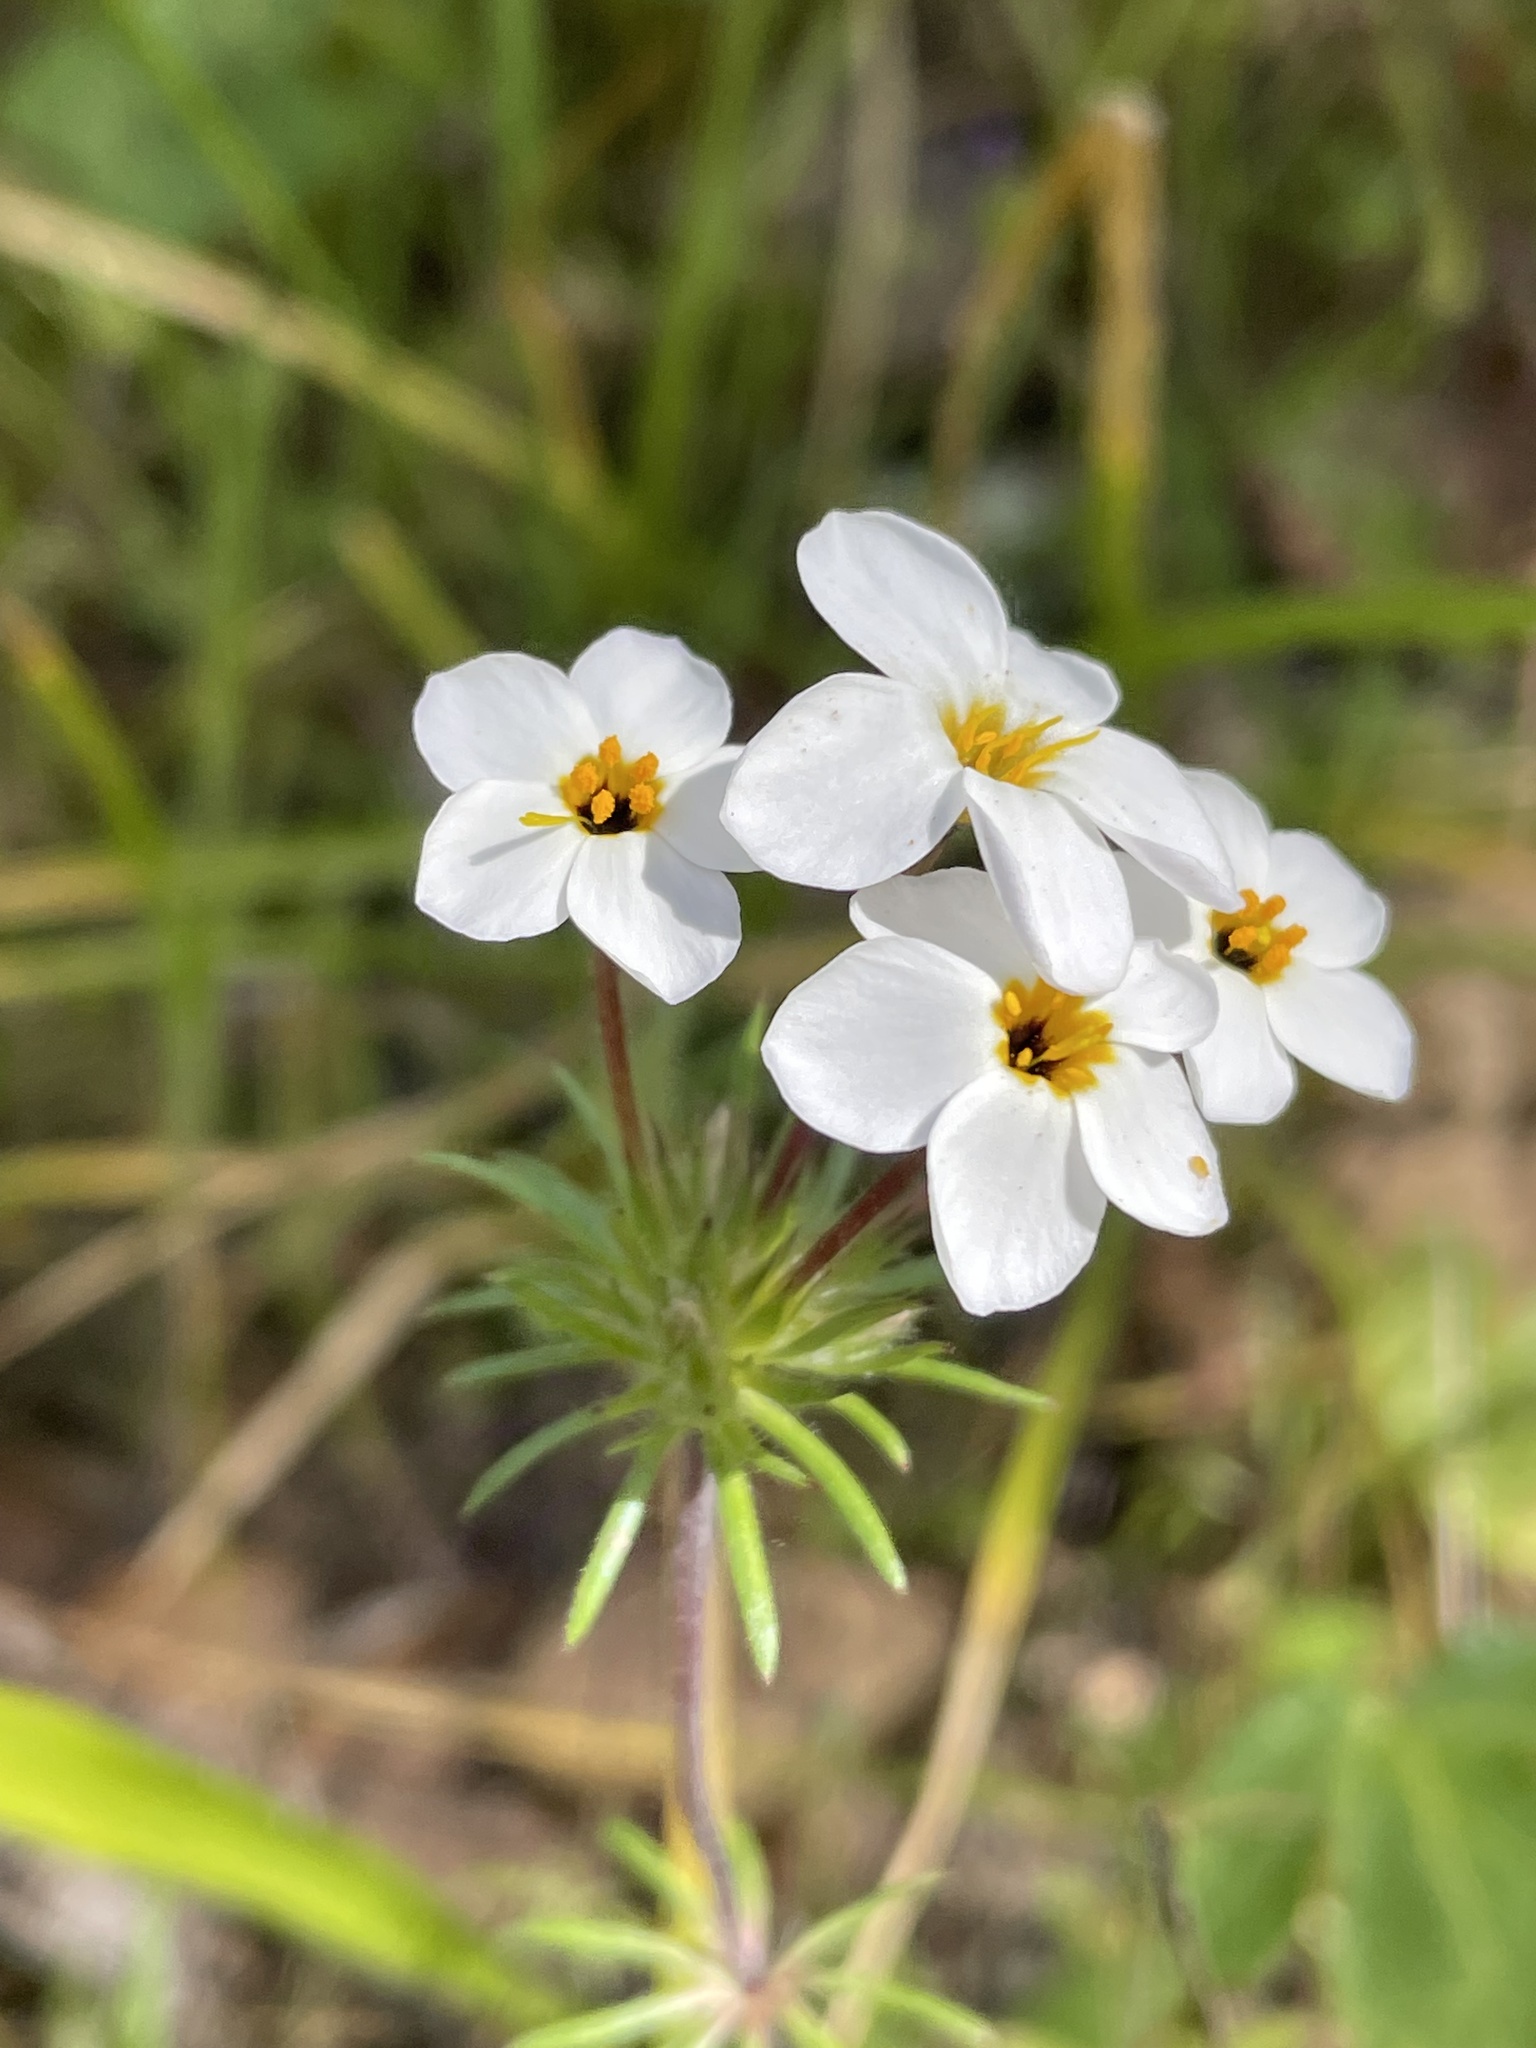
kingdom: Plantae
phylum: Tracheophyta
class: Magnoliopsida
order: Ericales
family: Polemoniaceae
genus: Leptosiphon
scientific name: Leptosiphon androsaceus
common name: False babystars
